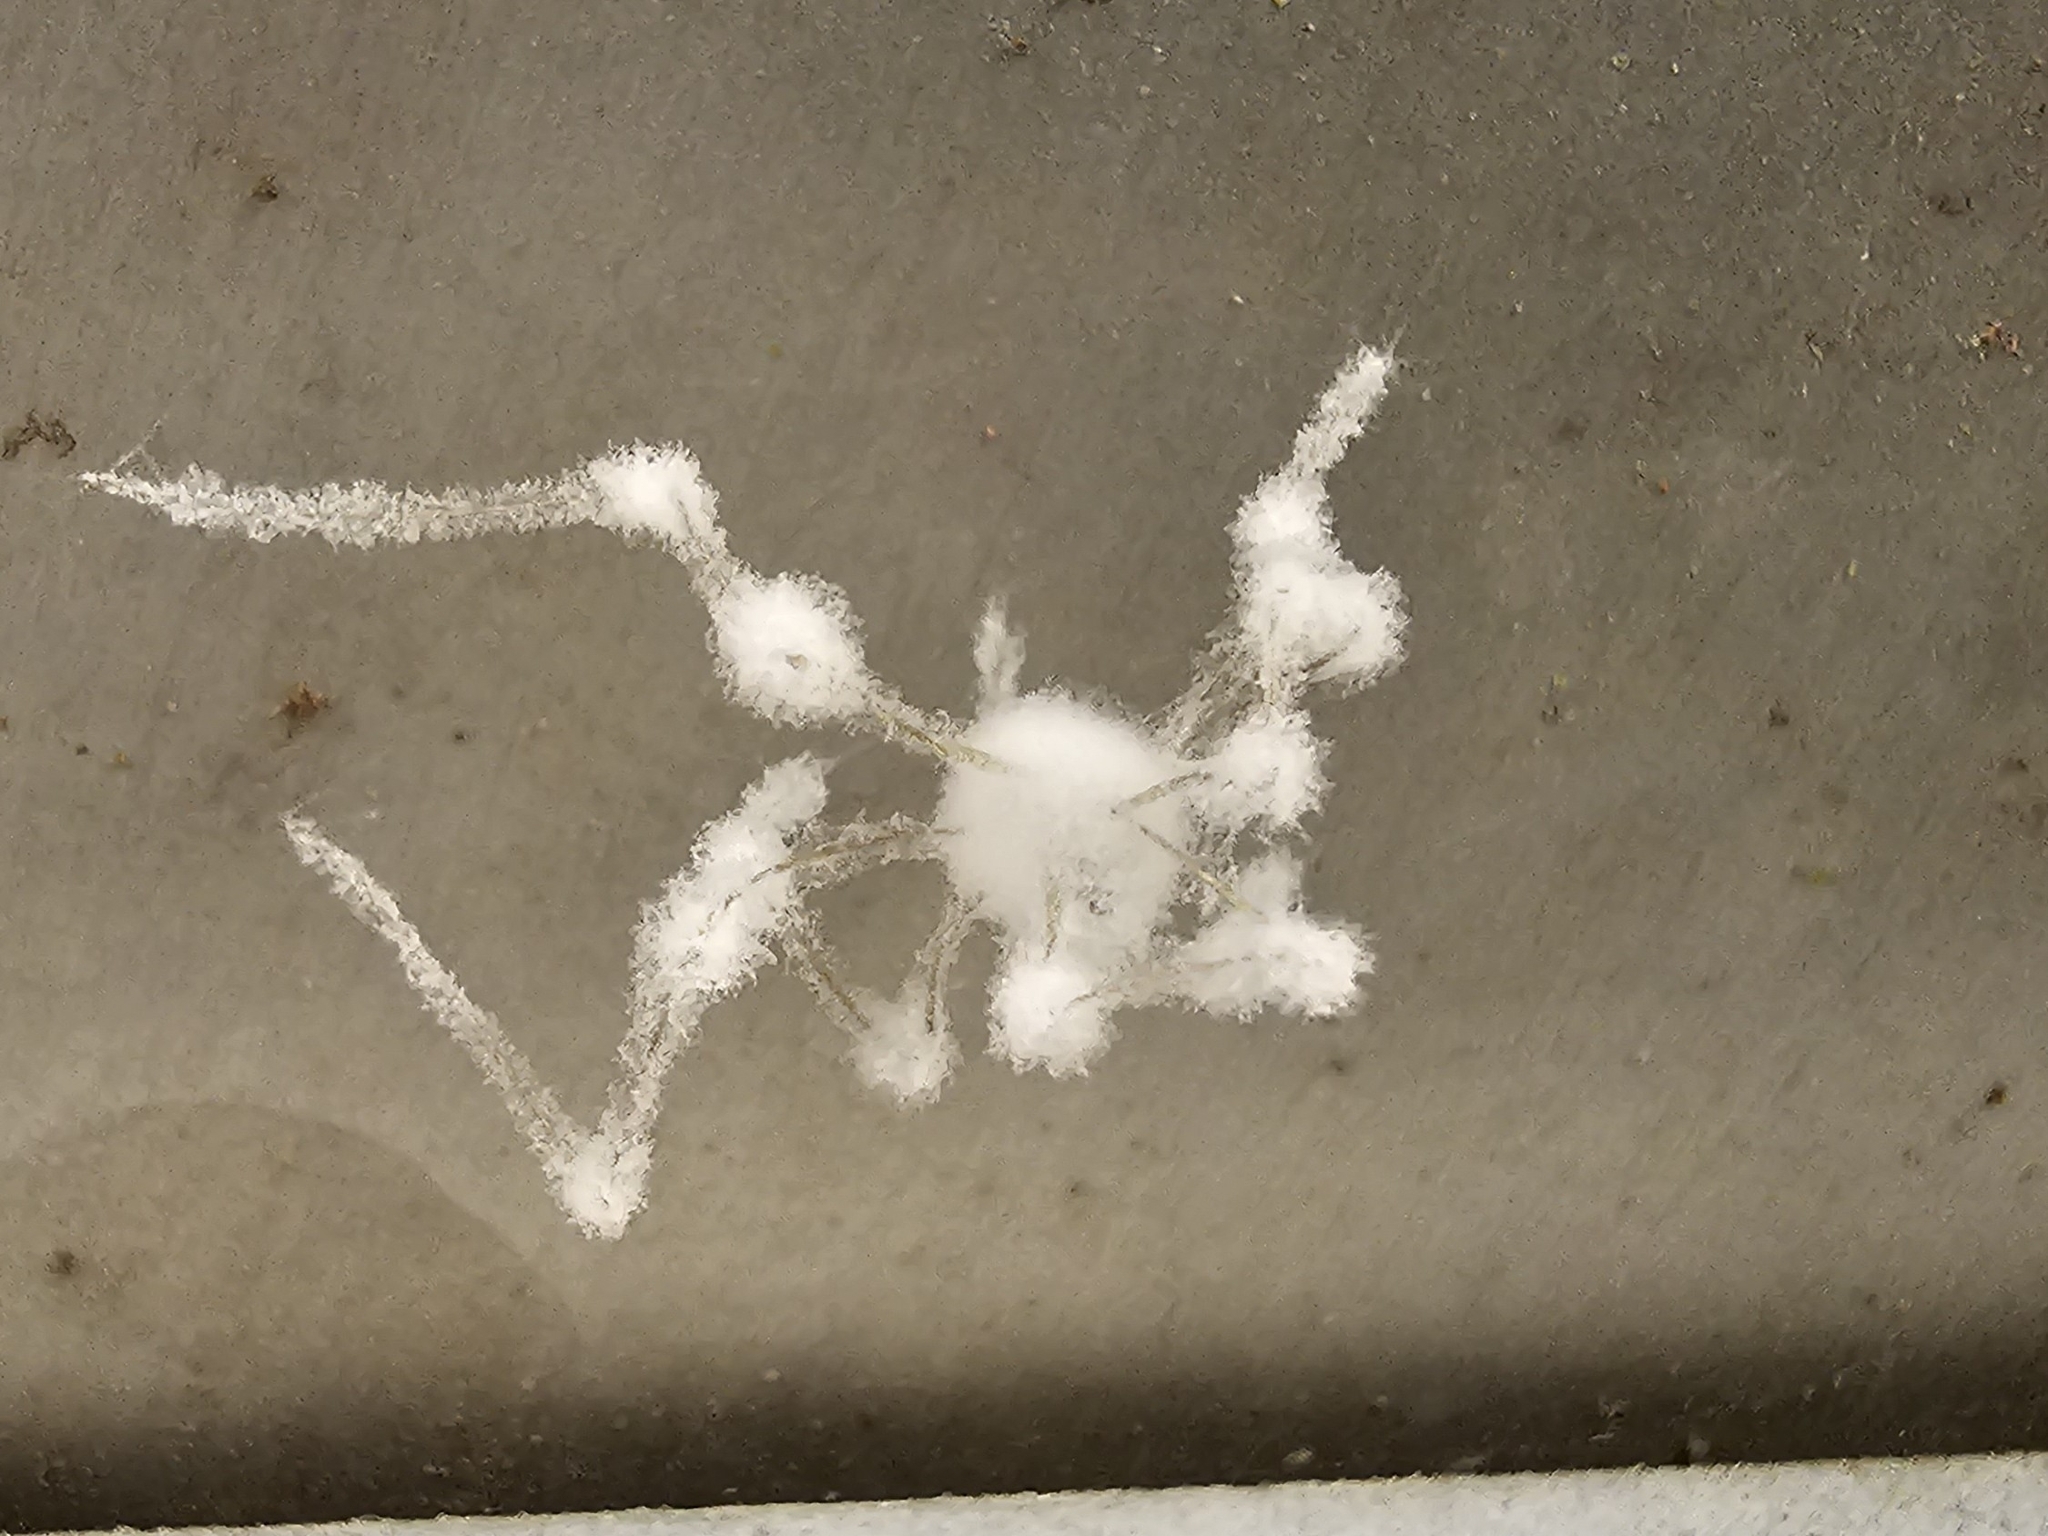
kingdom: Fungi
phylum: Ascomycota
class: Sordariomycetes
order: Hypocreales
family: Cordycipitaceae
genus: Lecanicillium
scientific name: Lecanicillium tenuipes
